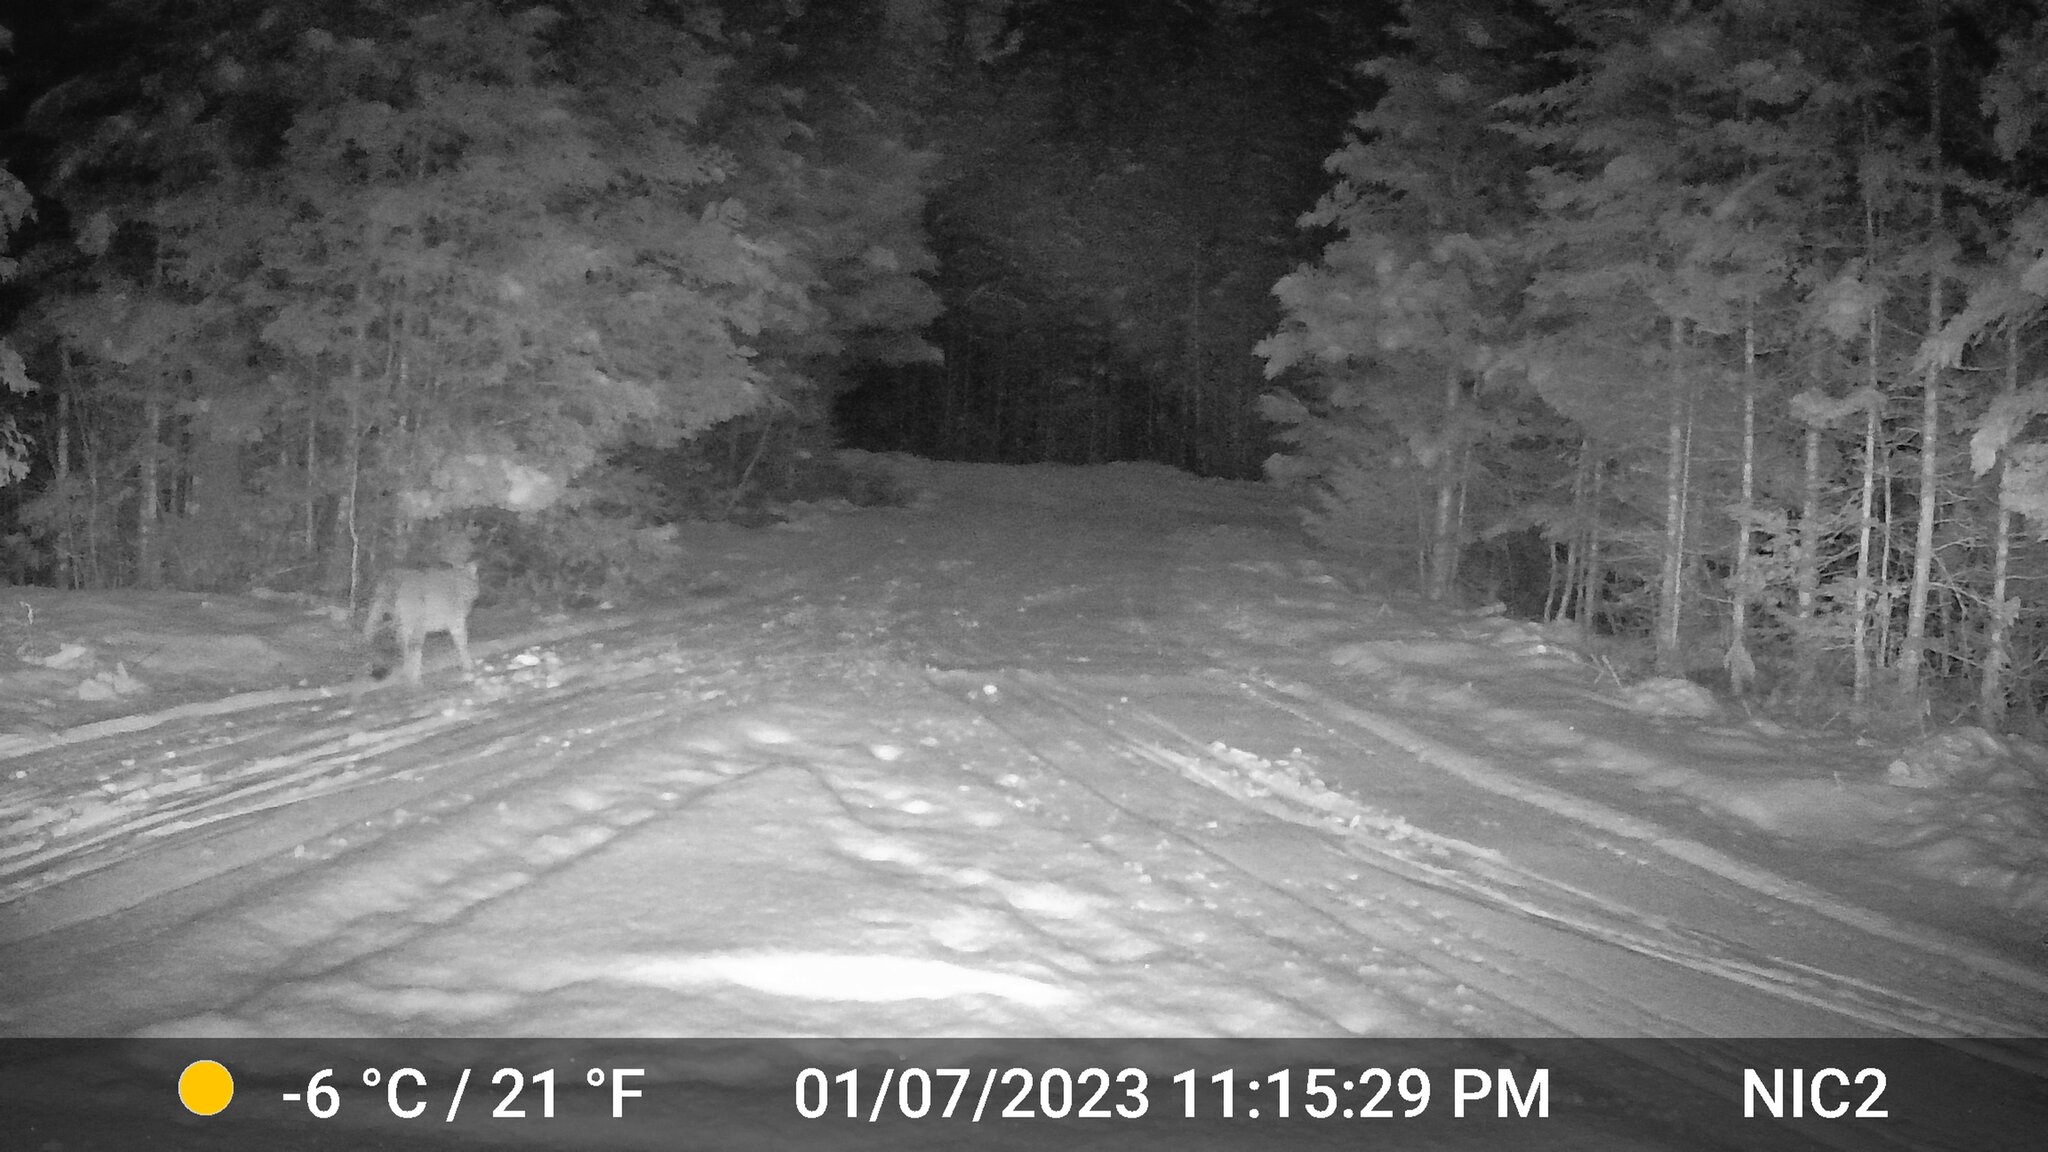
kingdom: Animalia
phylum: Chordata
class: Mammalia
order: Carnivora
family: Canidae
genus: Canis
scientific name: Canis latrans
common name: Coyote
